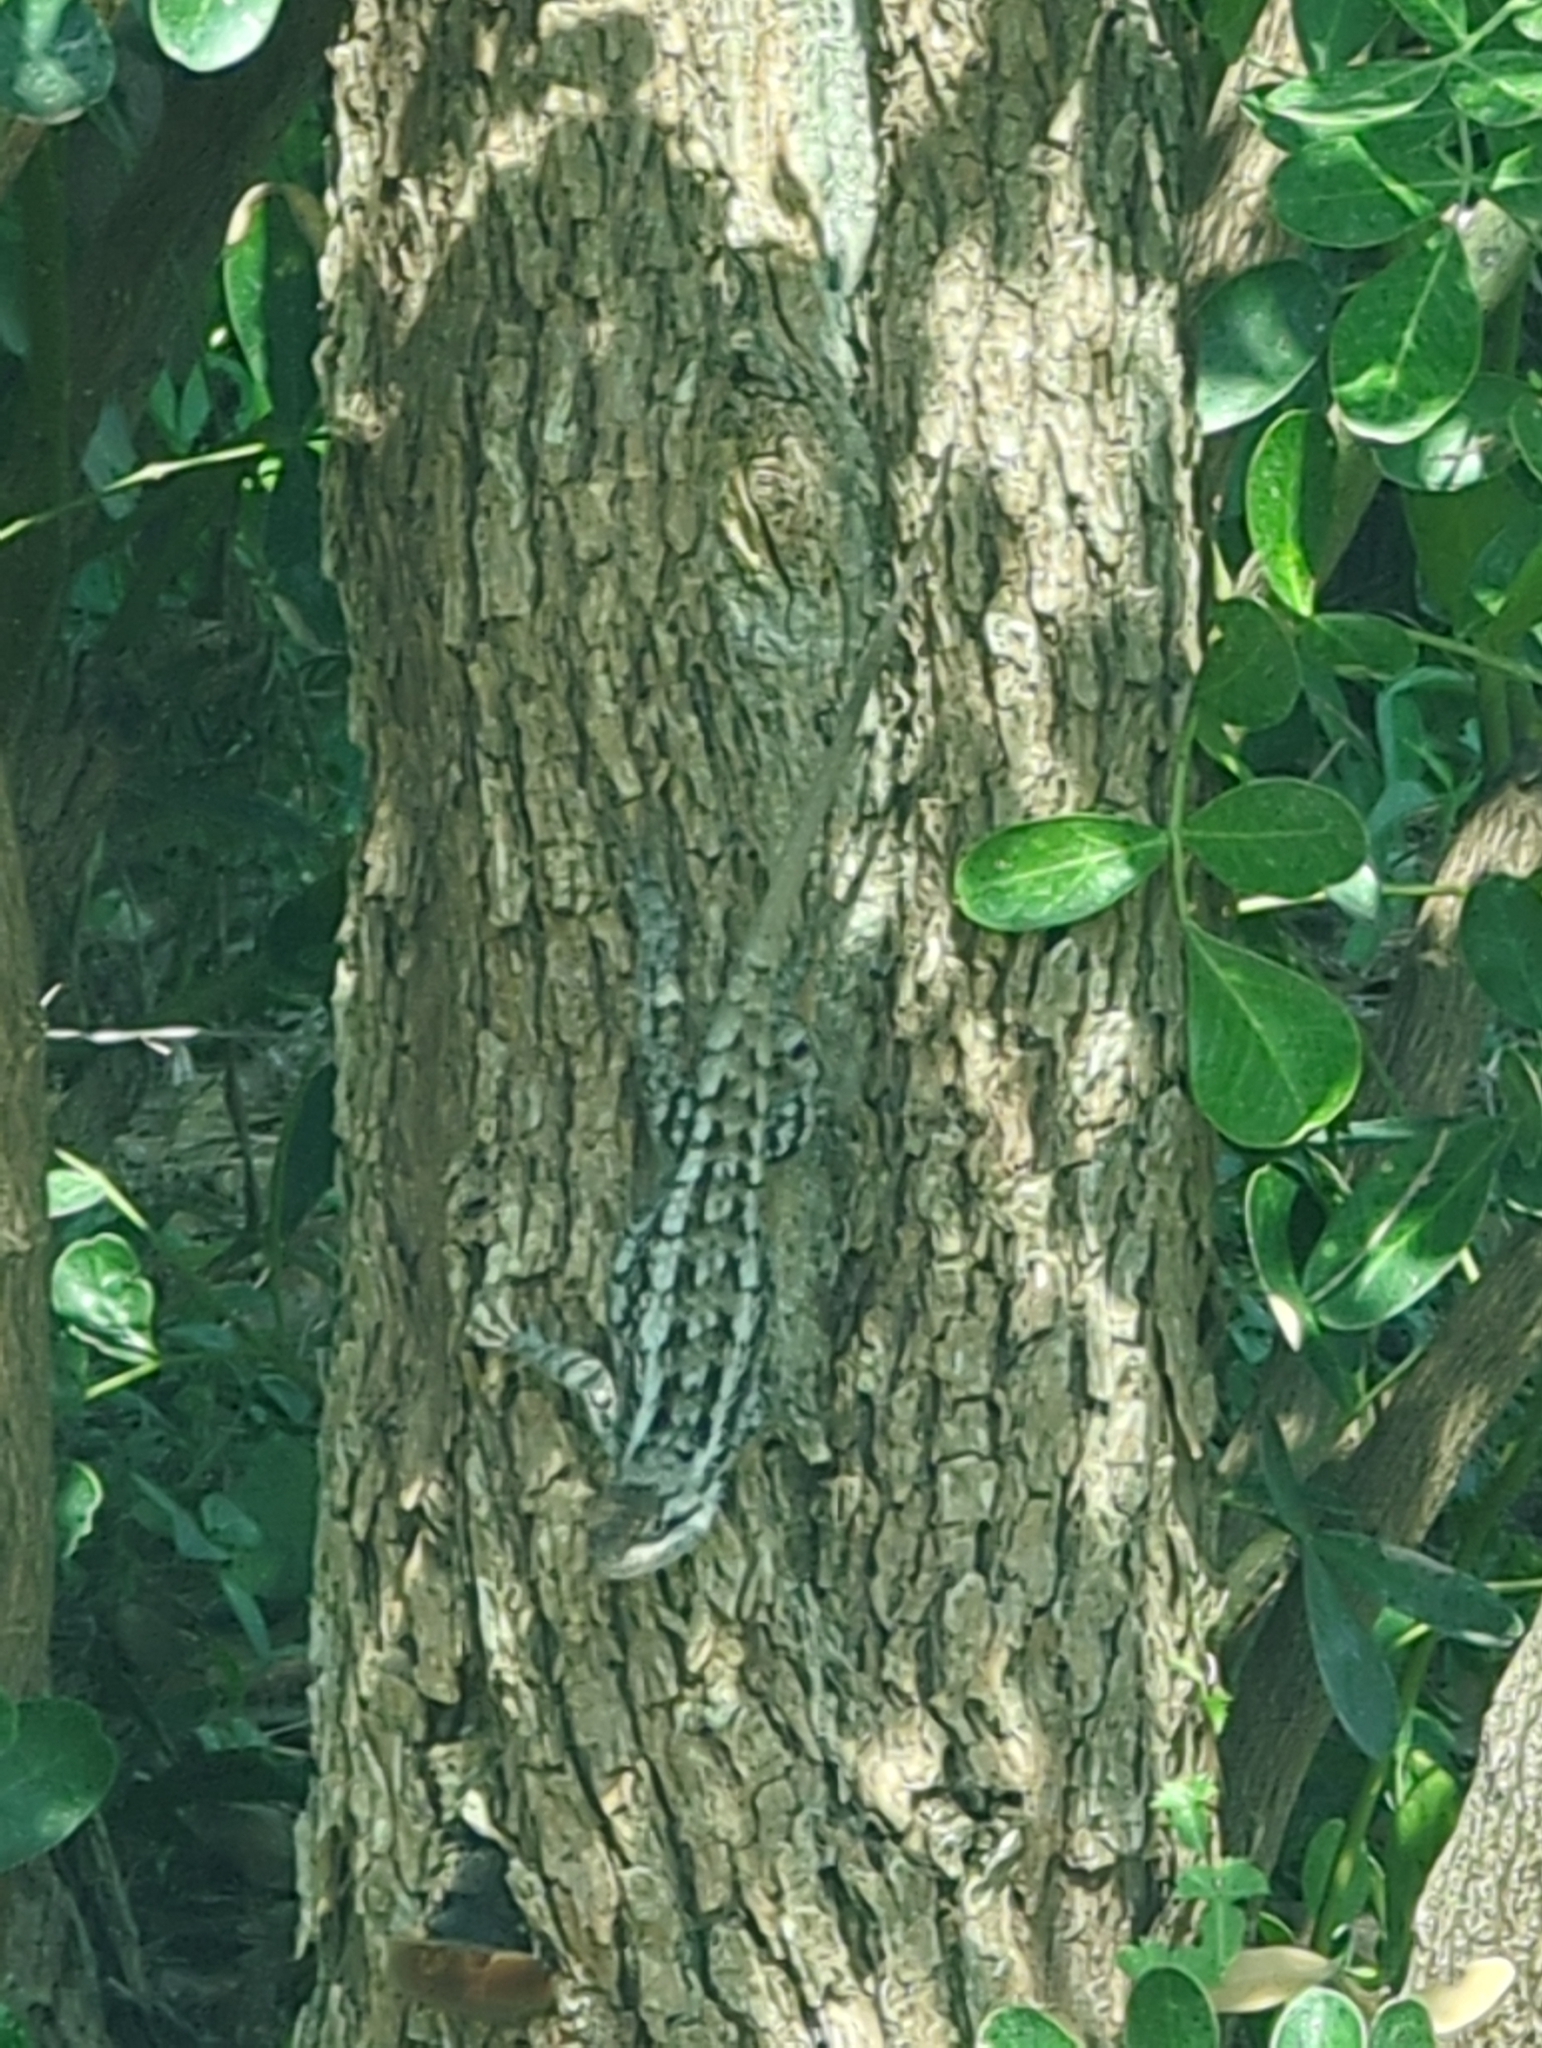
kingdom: Animalia
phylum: Chordata
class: Squamata
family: Phrynosomatidae
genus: Sceloporus
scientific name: Sceloporus olivaceus
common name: Texas spiny lizard
